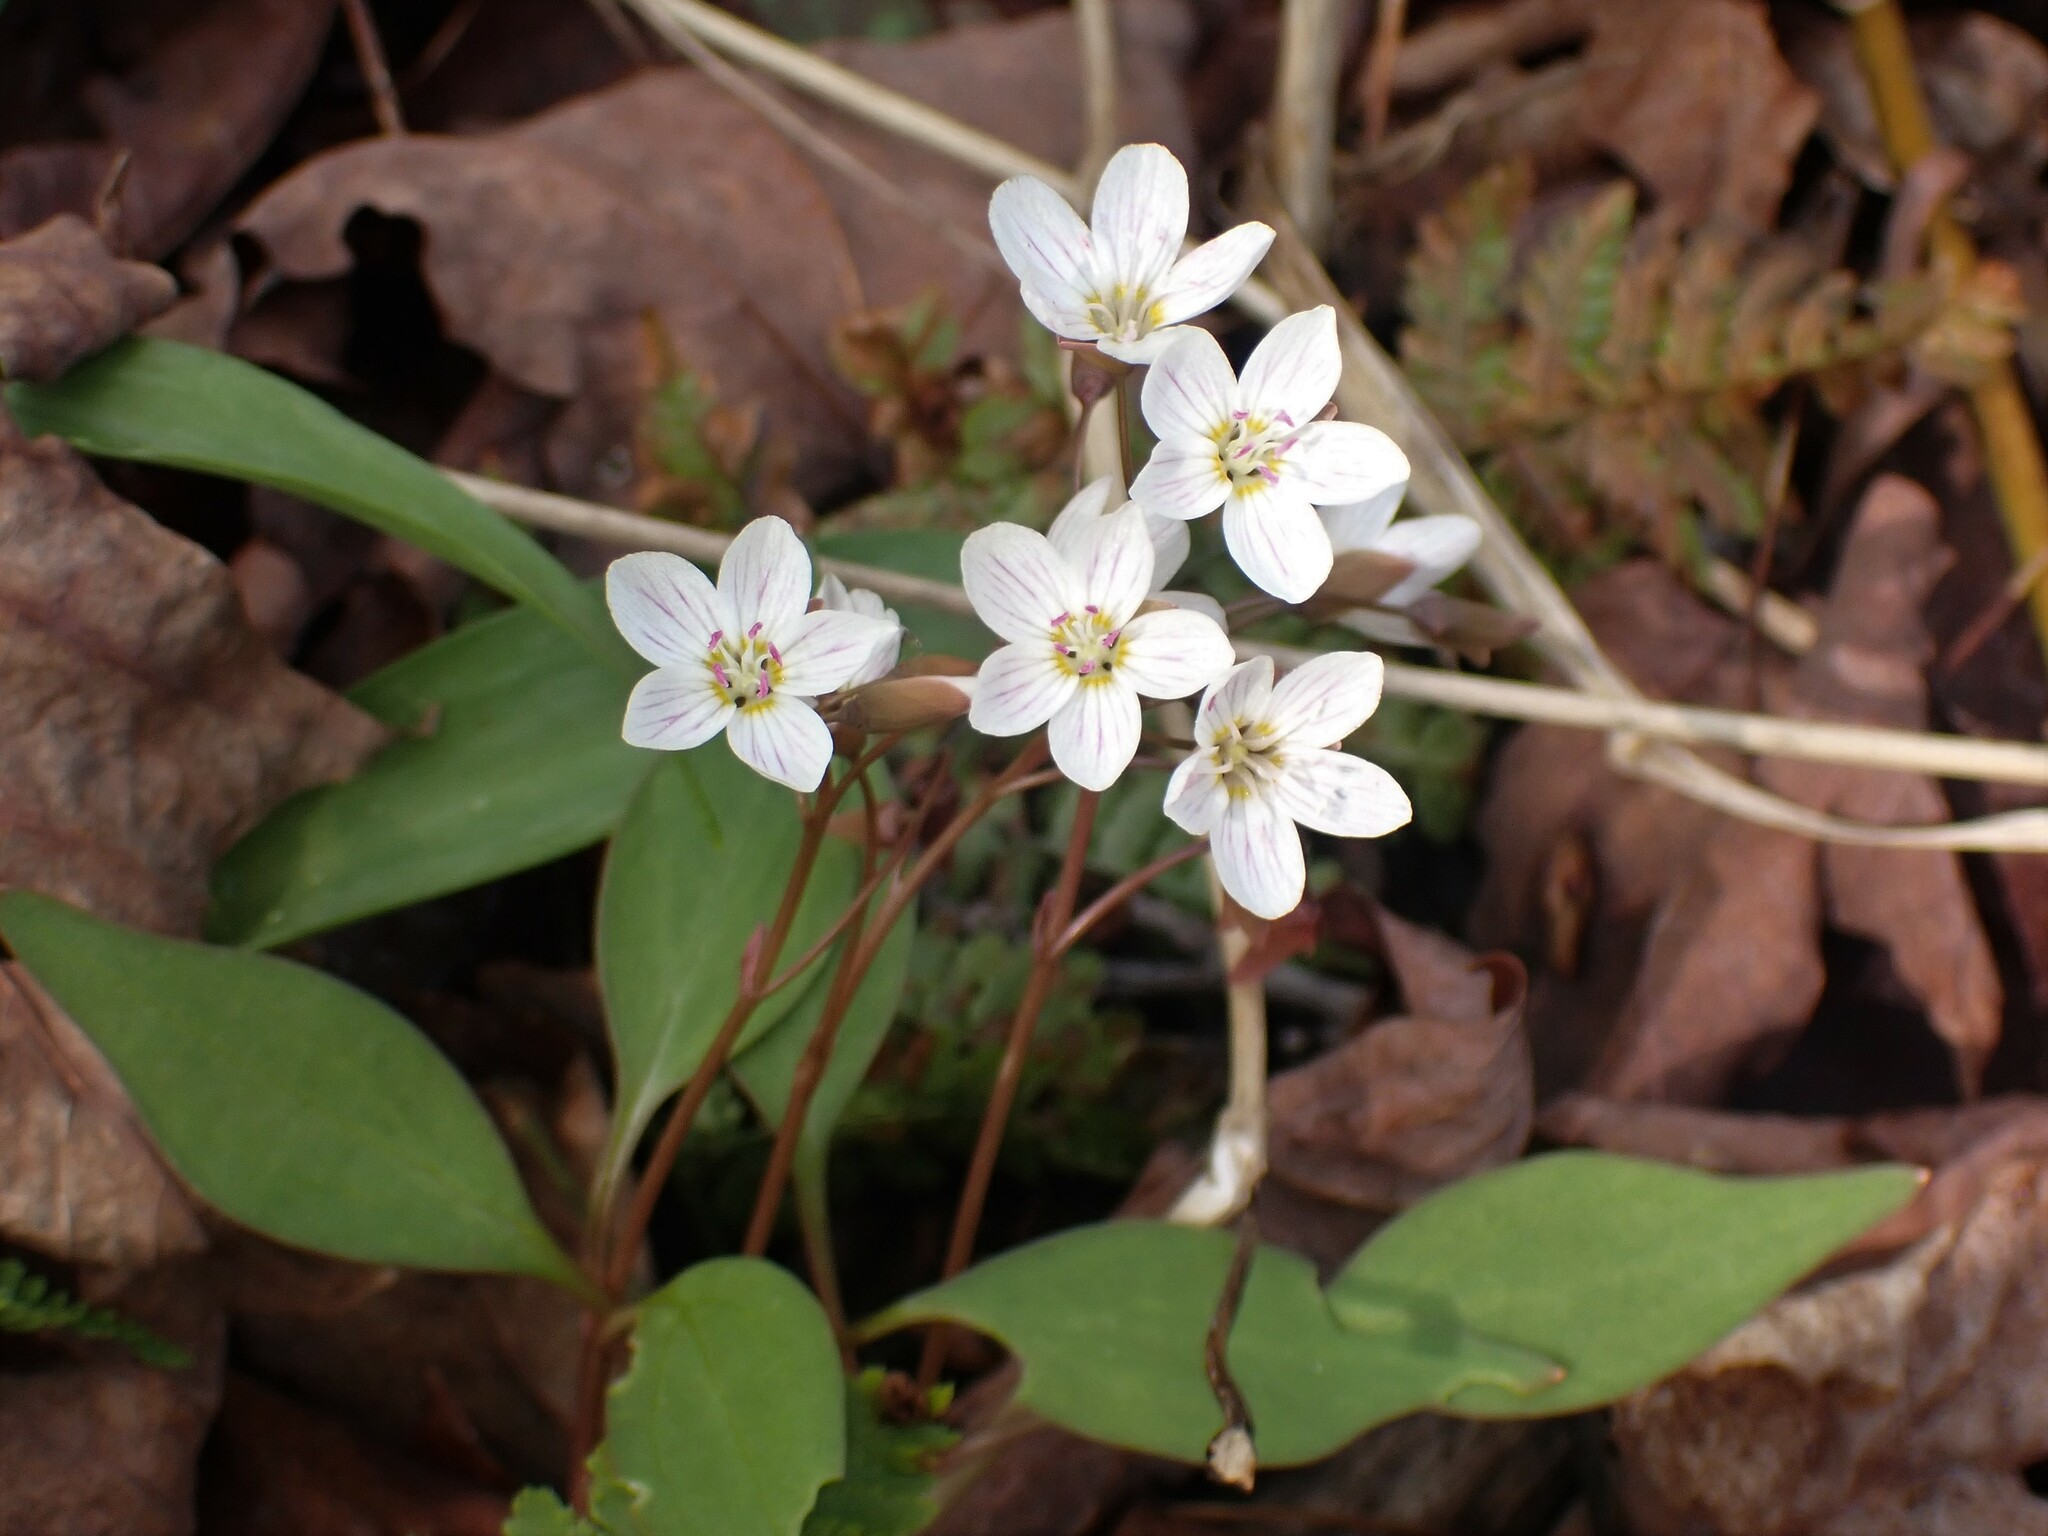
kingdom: Plantae
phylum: Tracheophyta
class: Magnoliopsida
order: Caryophyllales
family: Montiaceae
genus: Claytonia
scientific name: Claytonia caroliniana
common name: Carolina spring beauty
